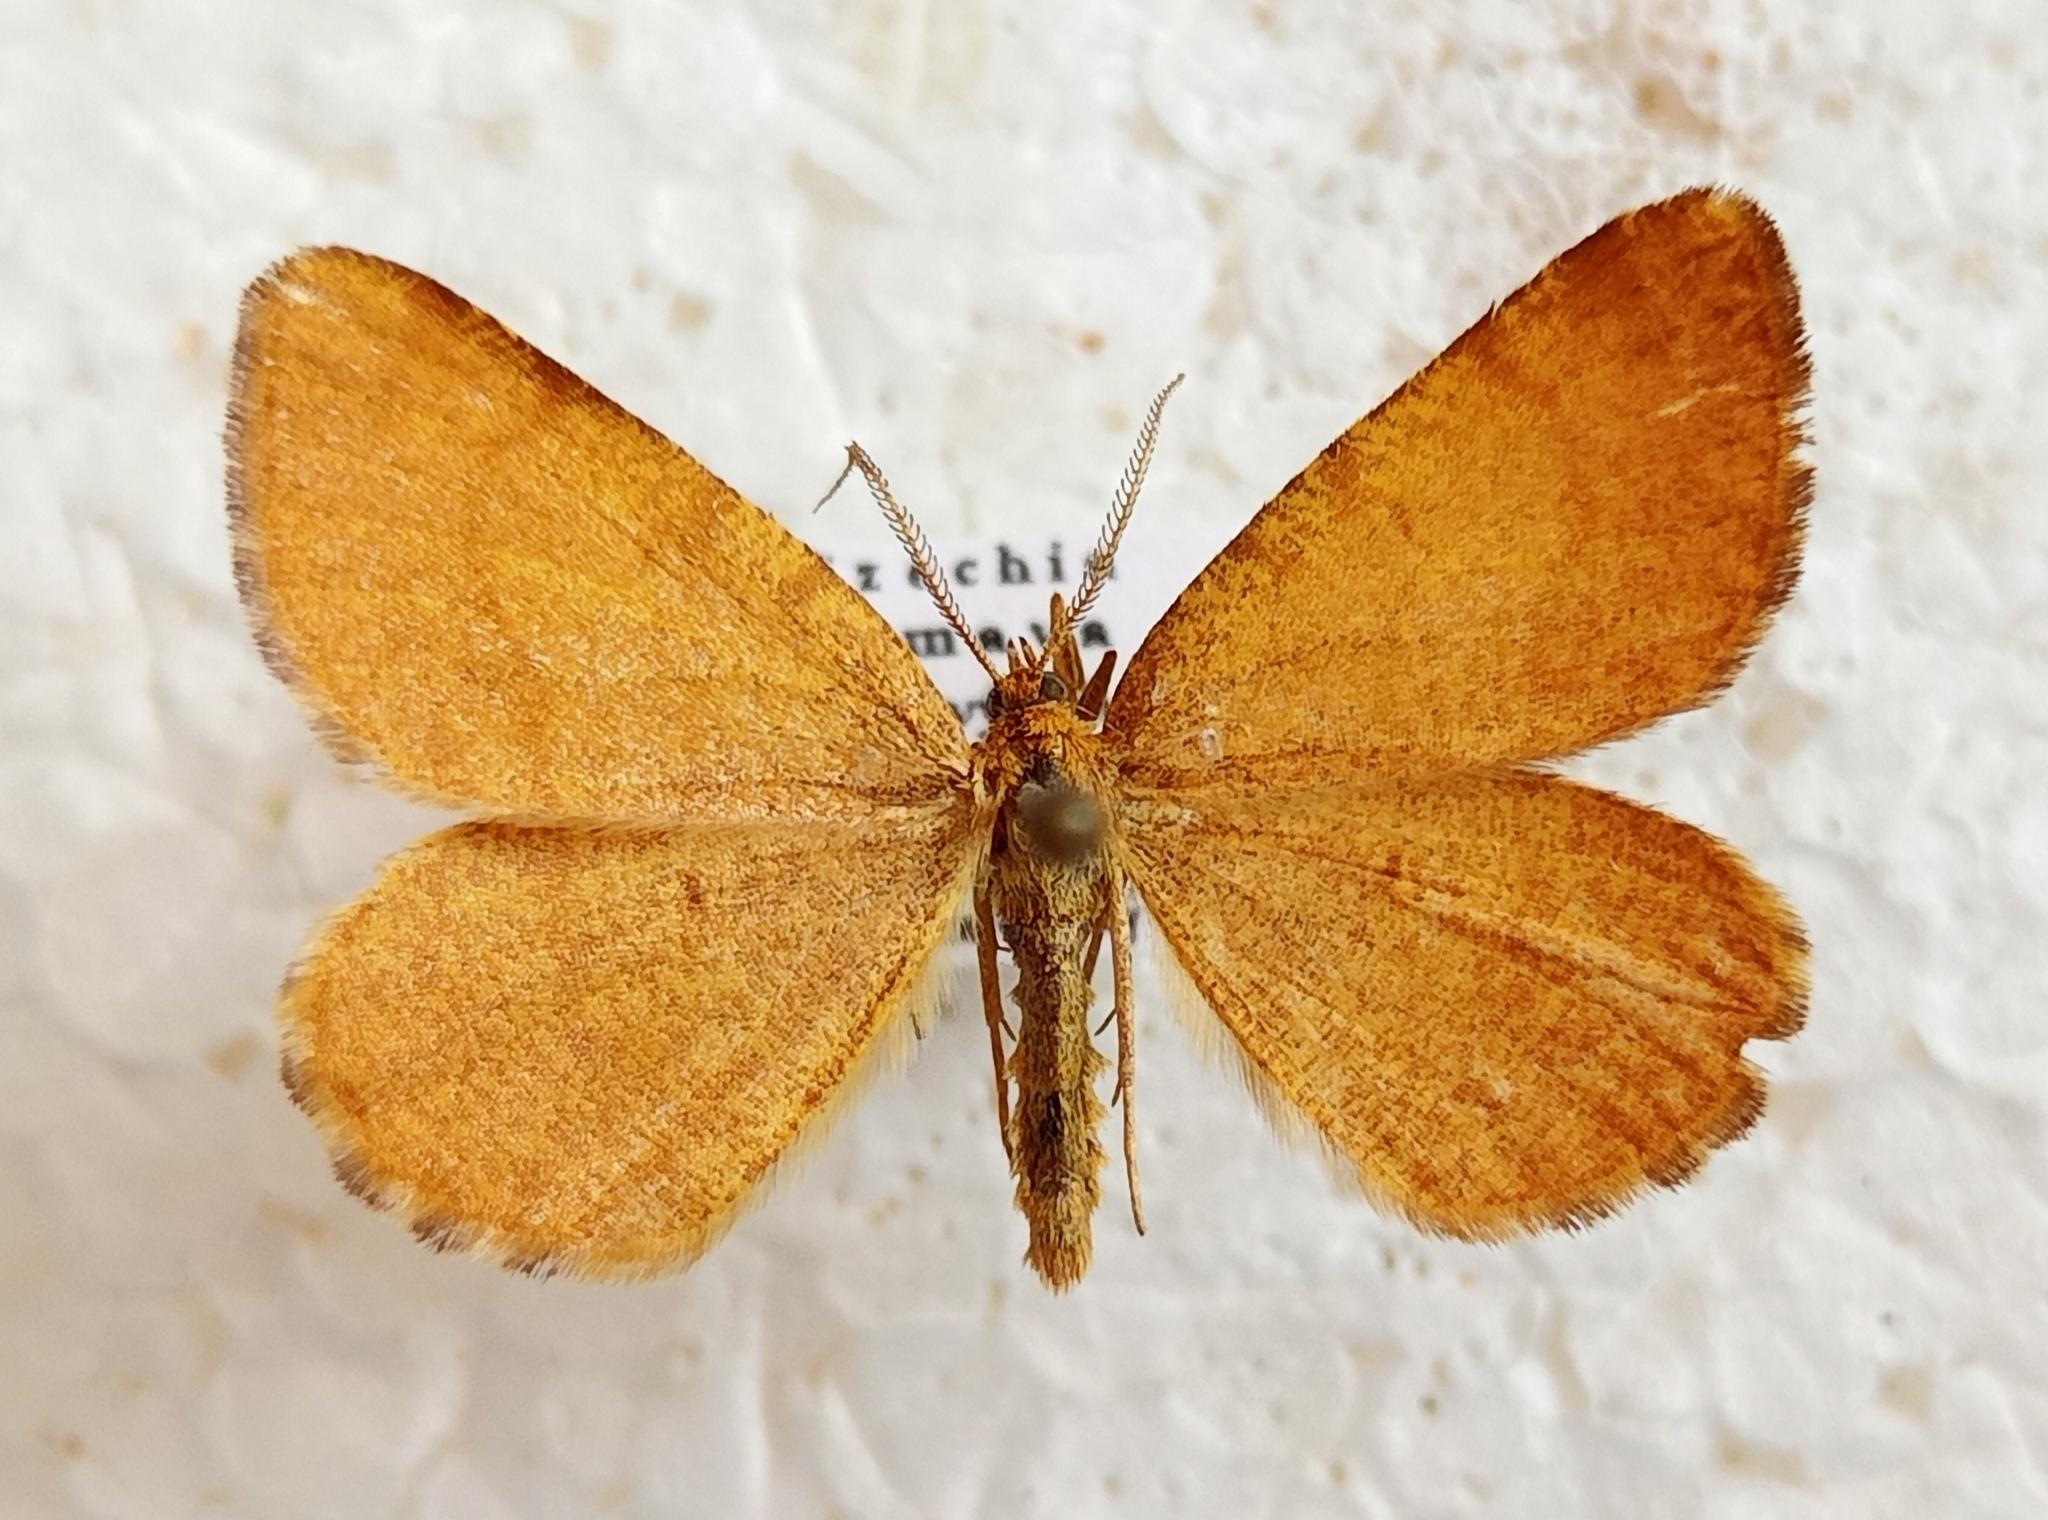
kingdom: Animalia
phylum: Arthropoda
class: Insecta
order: Lepidoptera
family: Geometridae
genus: Macaria
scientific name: Macaria brunneata
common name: Rannoch looper
